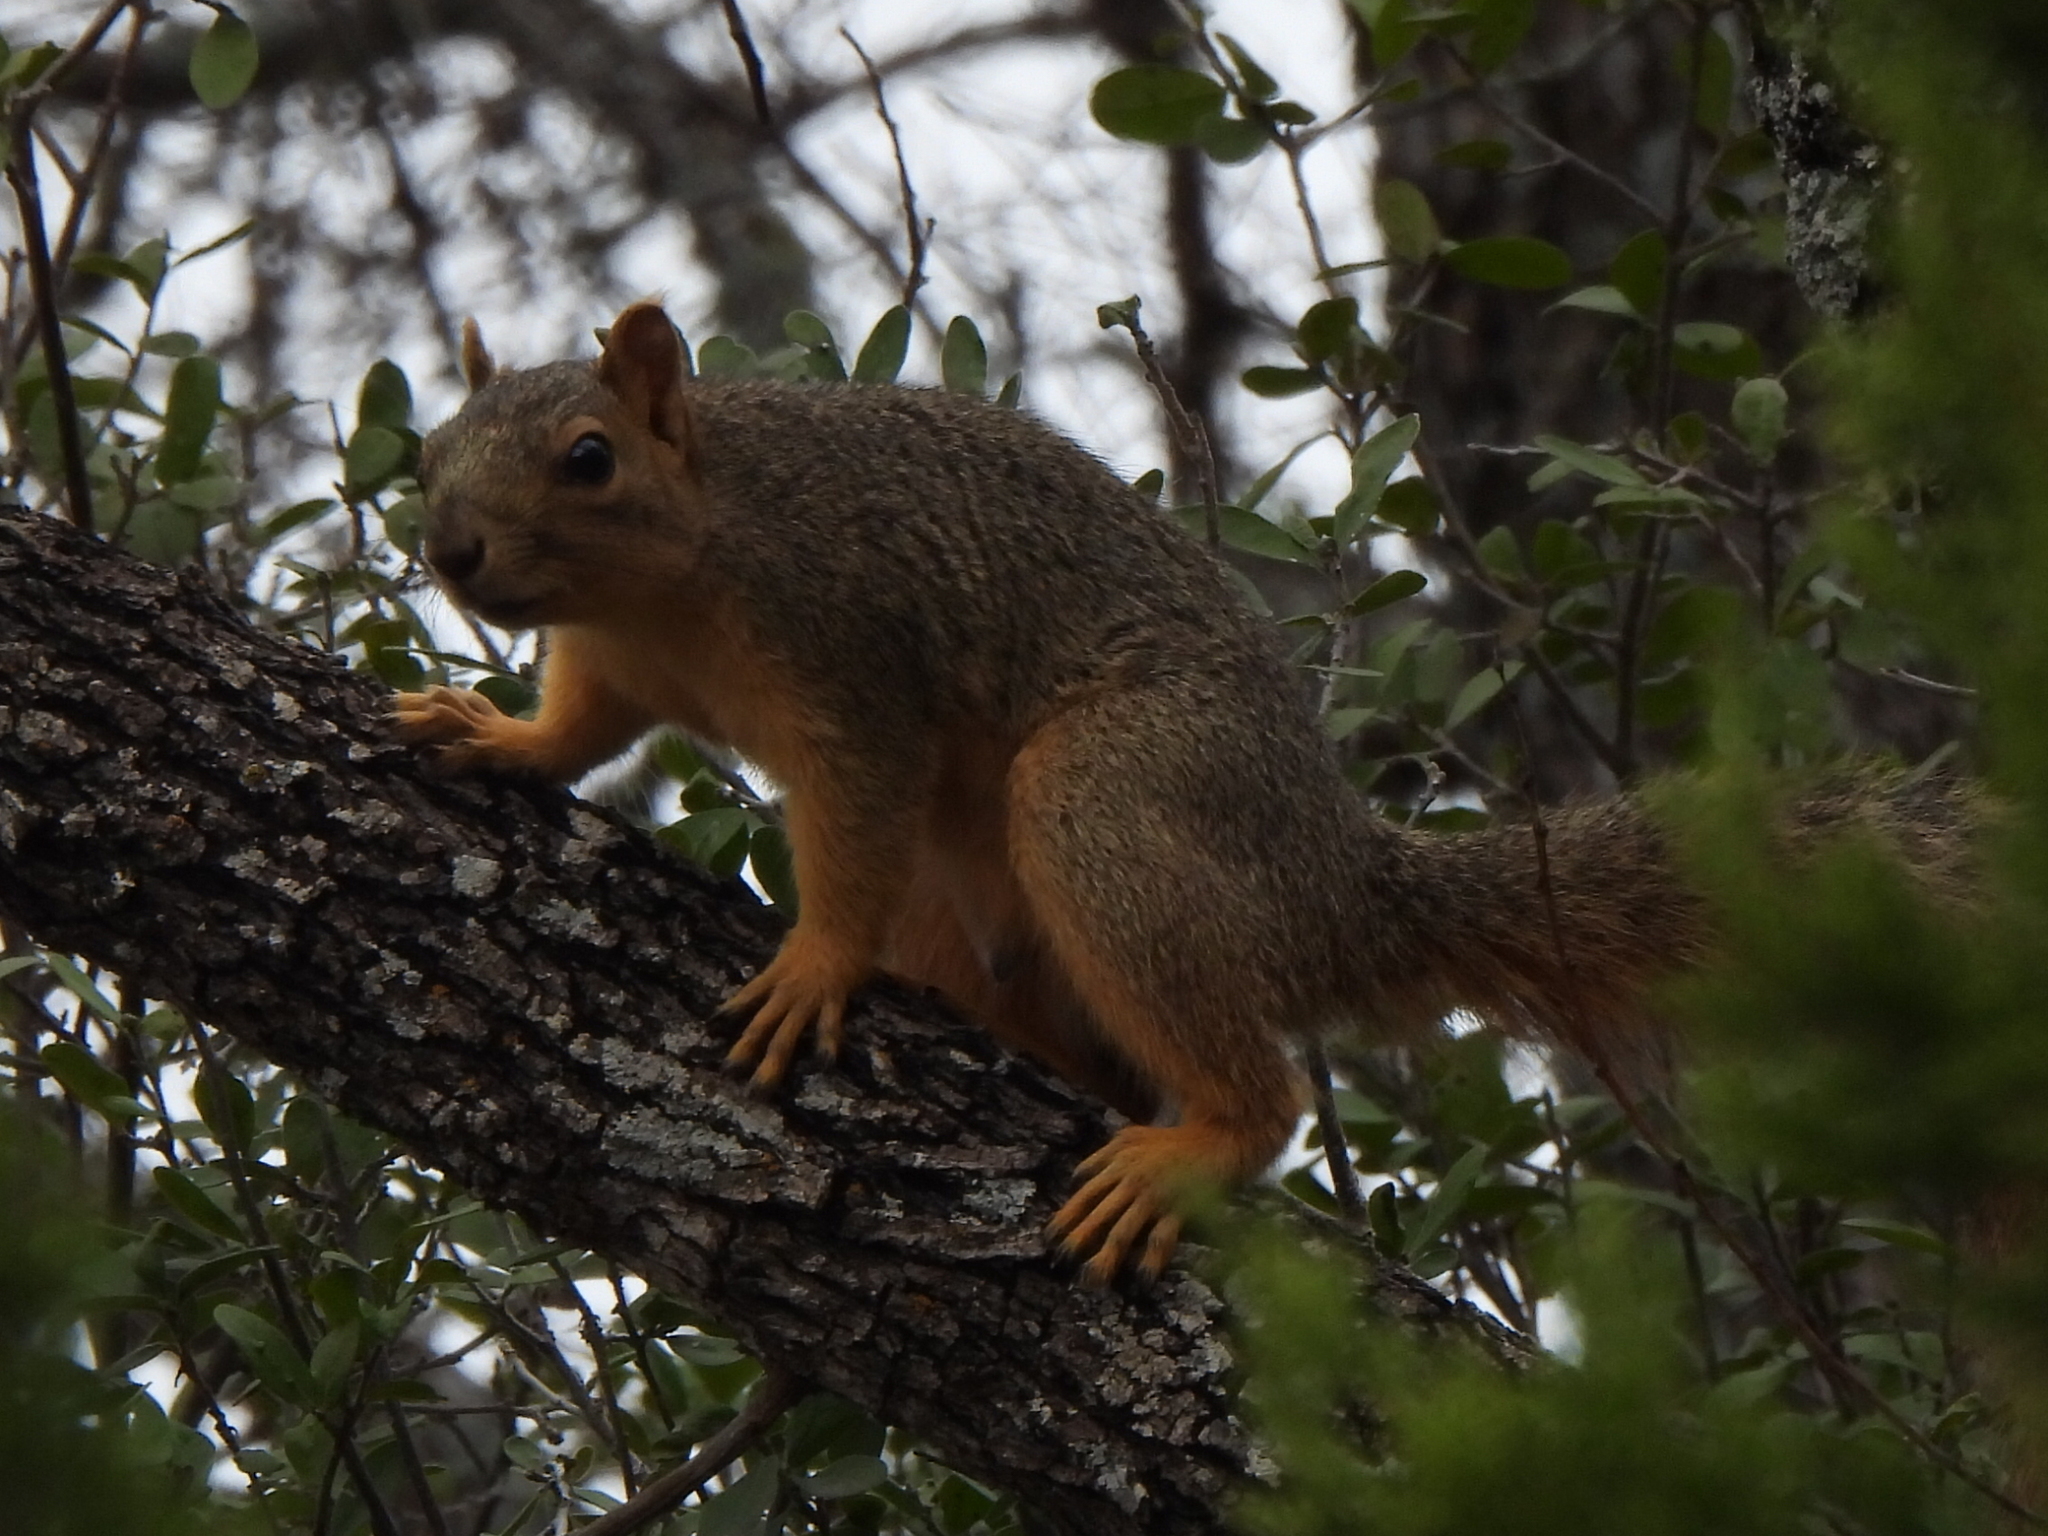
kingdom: Animalia
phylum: Chordata
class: Mammalia
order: Rodentia
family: Sciuridae
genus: Sciurus
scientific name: Sciurus niger
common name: Fox squirrel
